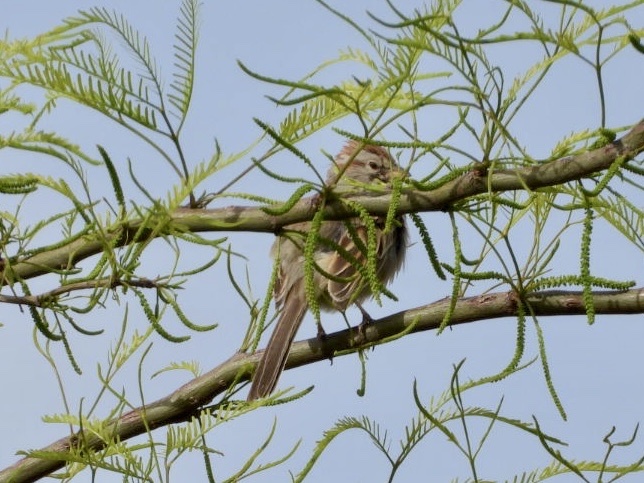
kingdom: Animalia
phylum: Chordata
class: Aves
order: Passeriformes
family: Passerellidae
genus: Peucaea
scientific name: Peucaea carpalis
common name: Rufous-winged sparrow
